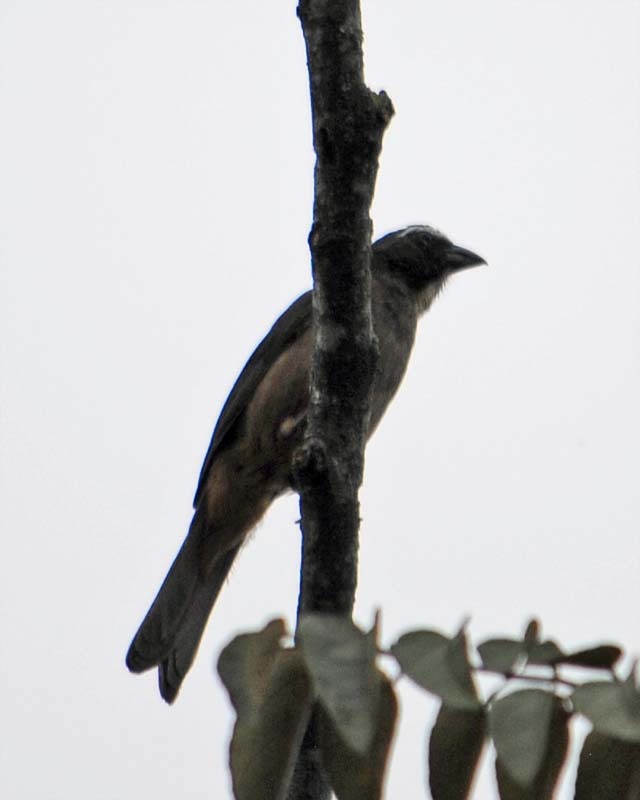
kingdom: Animalia
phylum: Chordata
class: Aves
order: Passeriformes
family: Thraupidae
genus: Saltator
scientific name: Saltator grandis
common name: Cinnamon-bellied saltator
